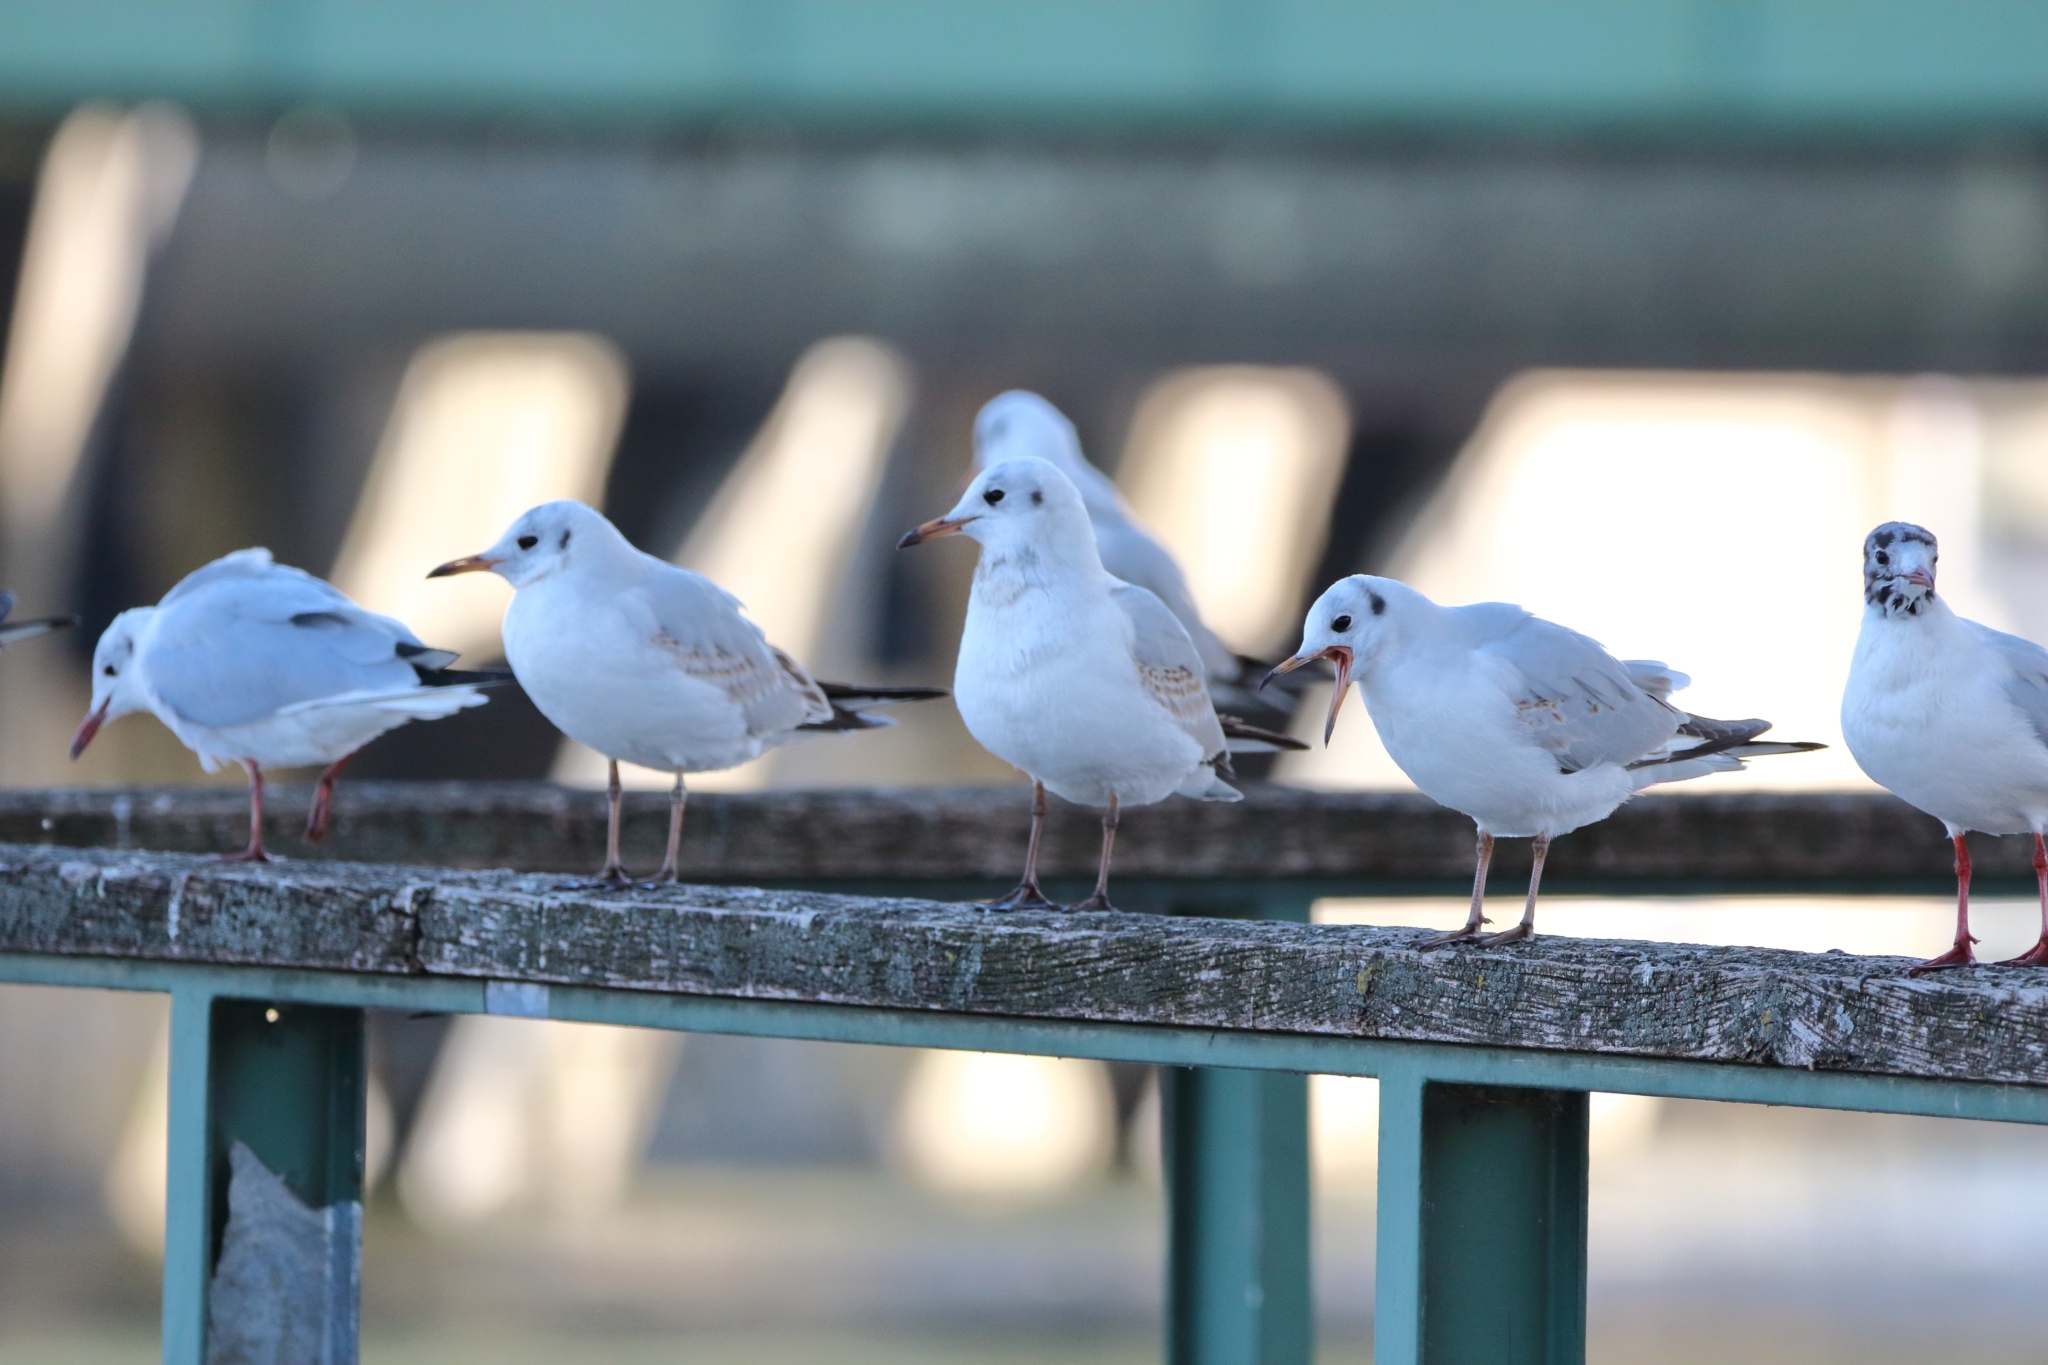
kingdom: Animalia
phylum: Chordata
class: Aves
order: Charadriiformes
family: Laridae
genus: Chroicocephalus
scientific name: Chroicocephalus ridibundus
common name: Black-headed gull
